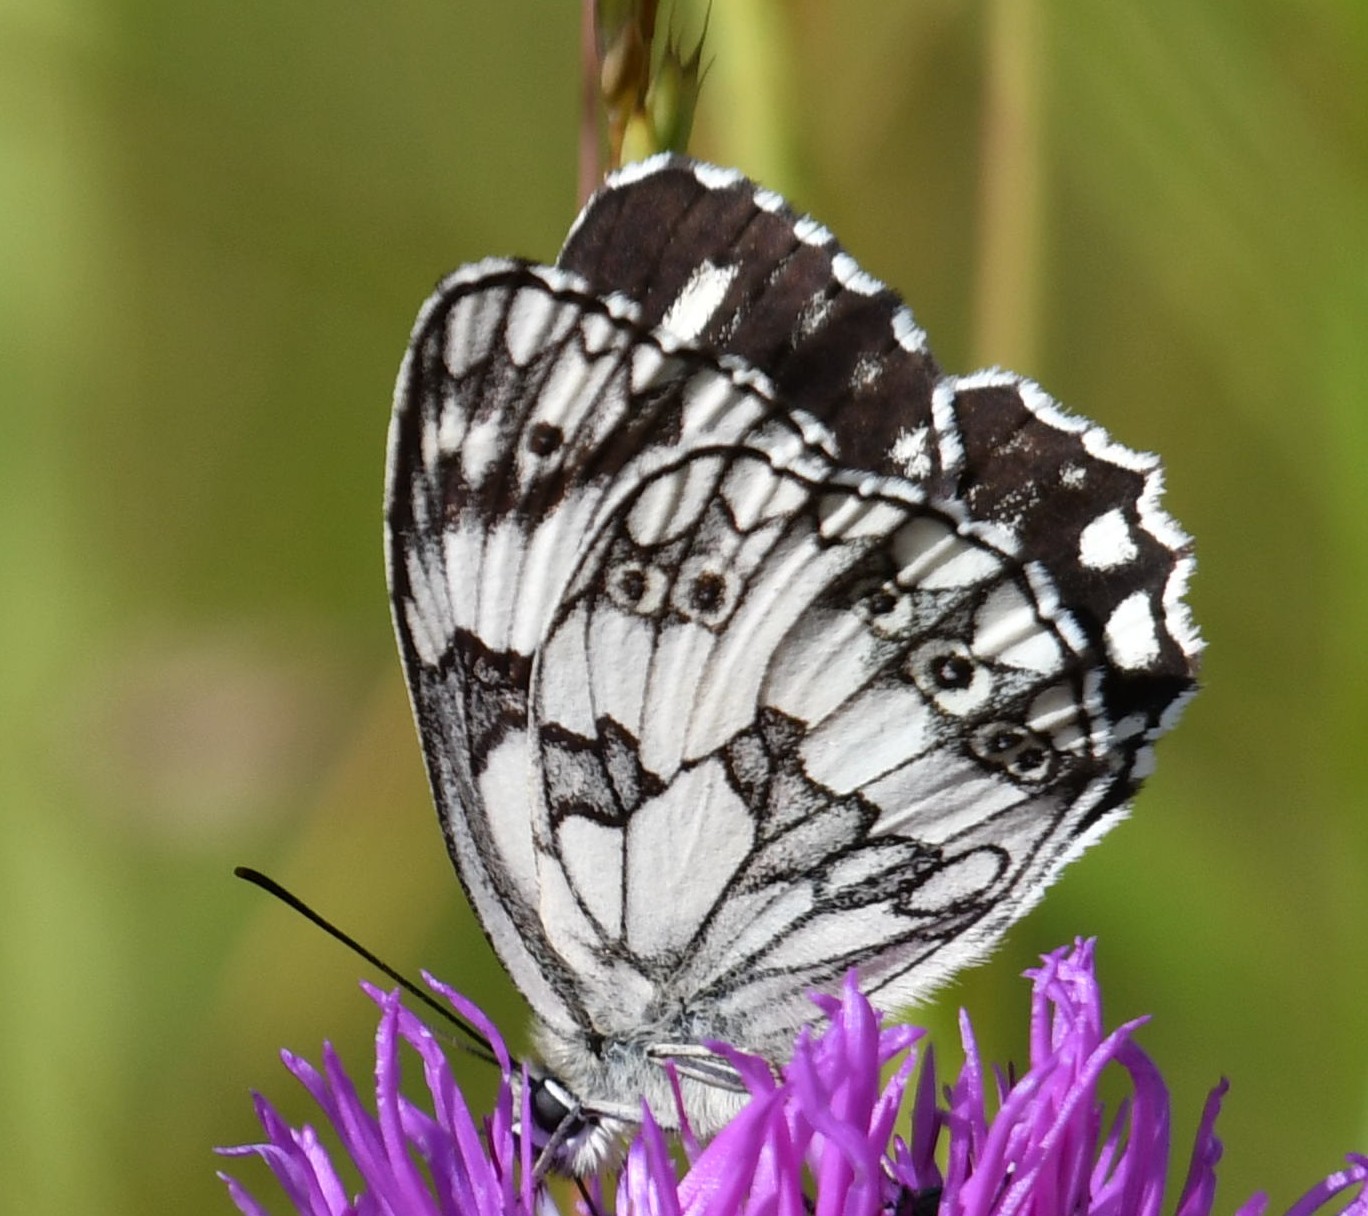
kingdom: Animalia
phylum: Arthropoda
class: Insecta
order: Lepidoptera
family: Nymphalidae
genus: Melanargia
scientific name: Melanargia galathea
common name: Marbled white
